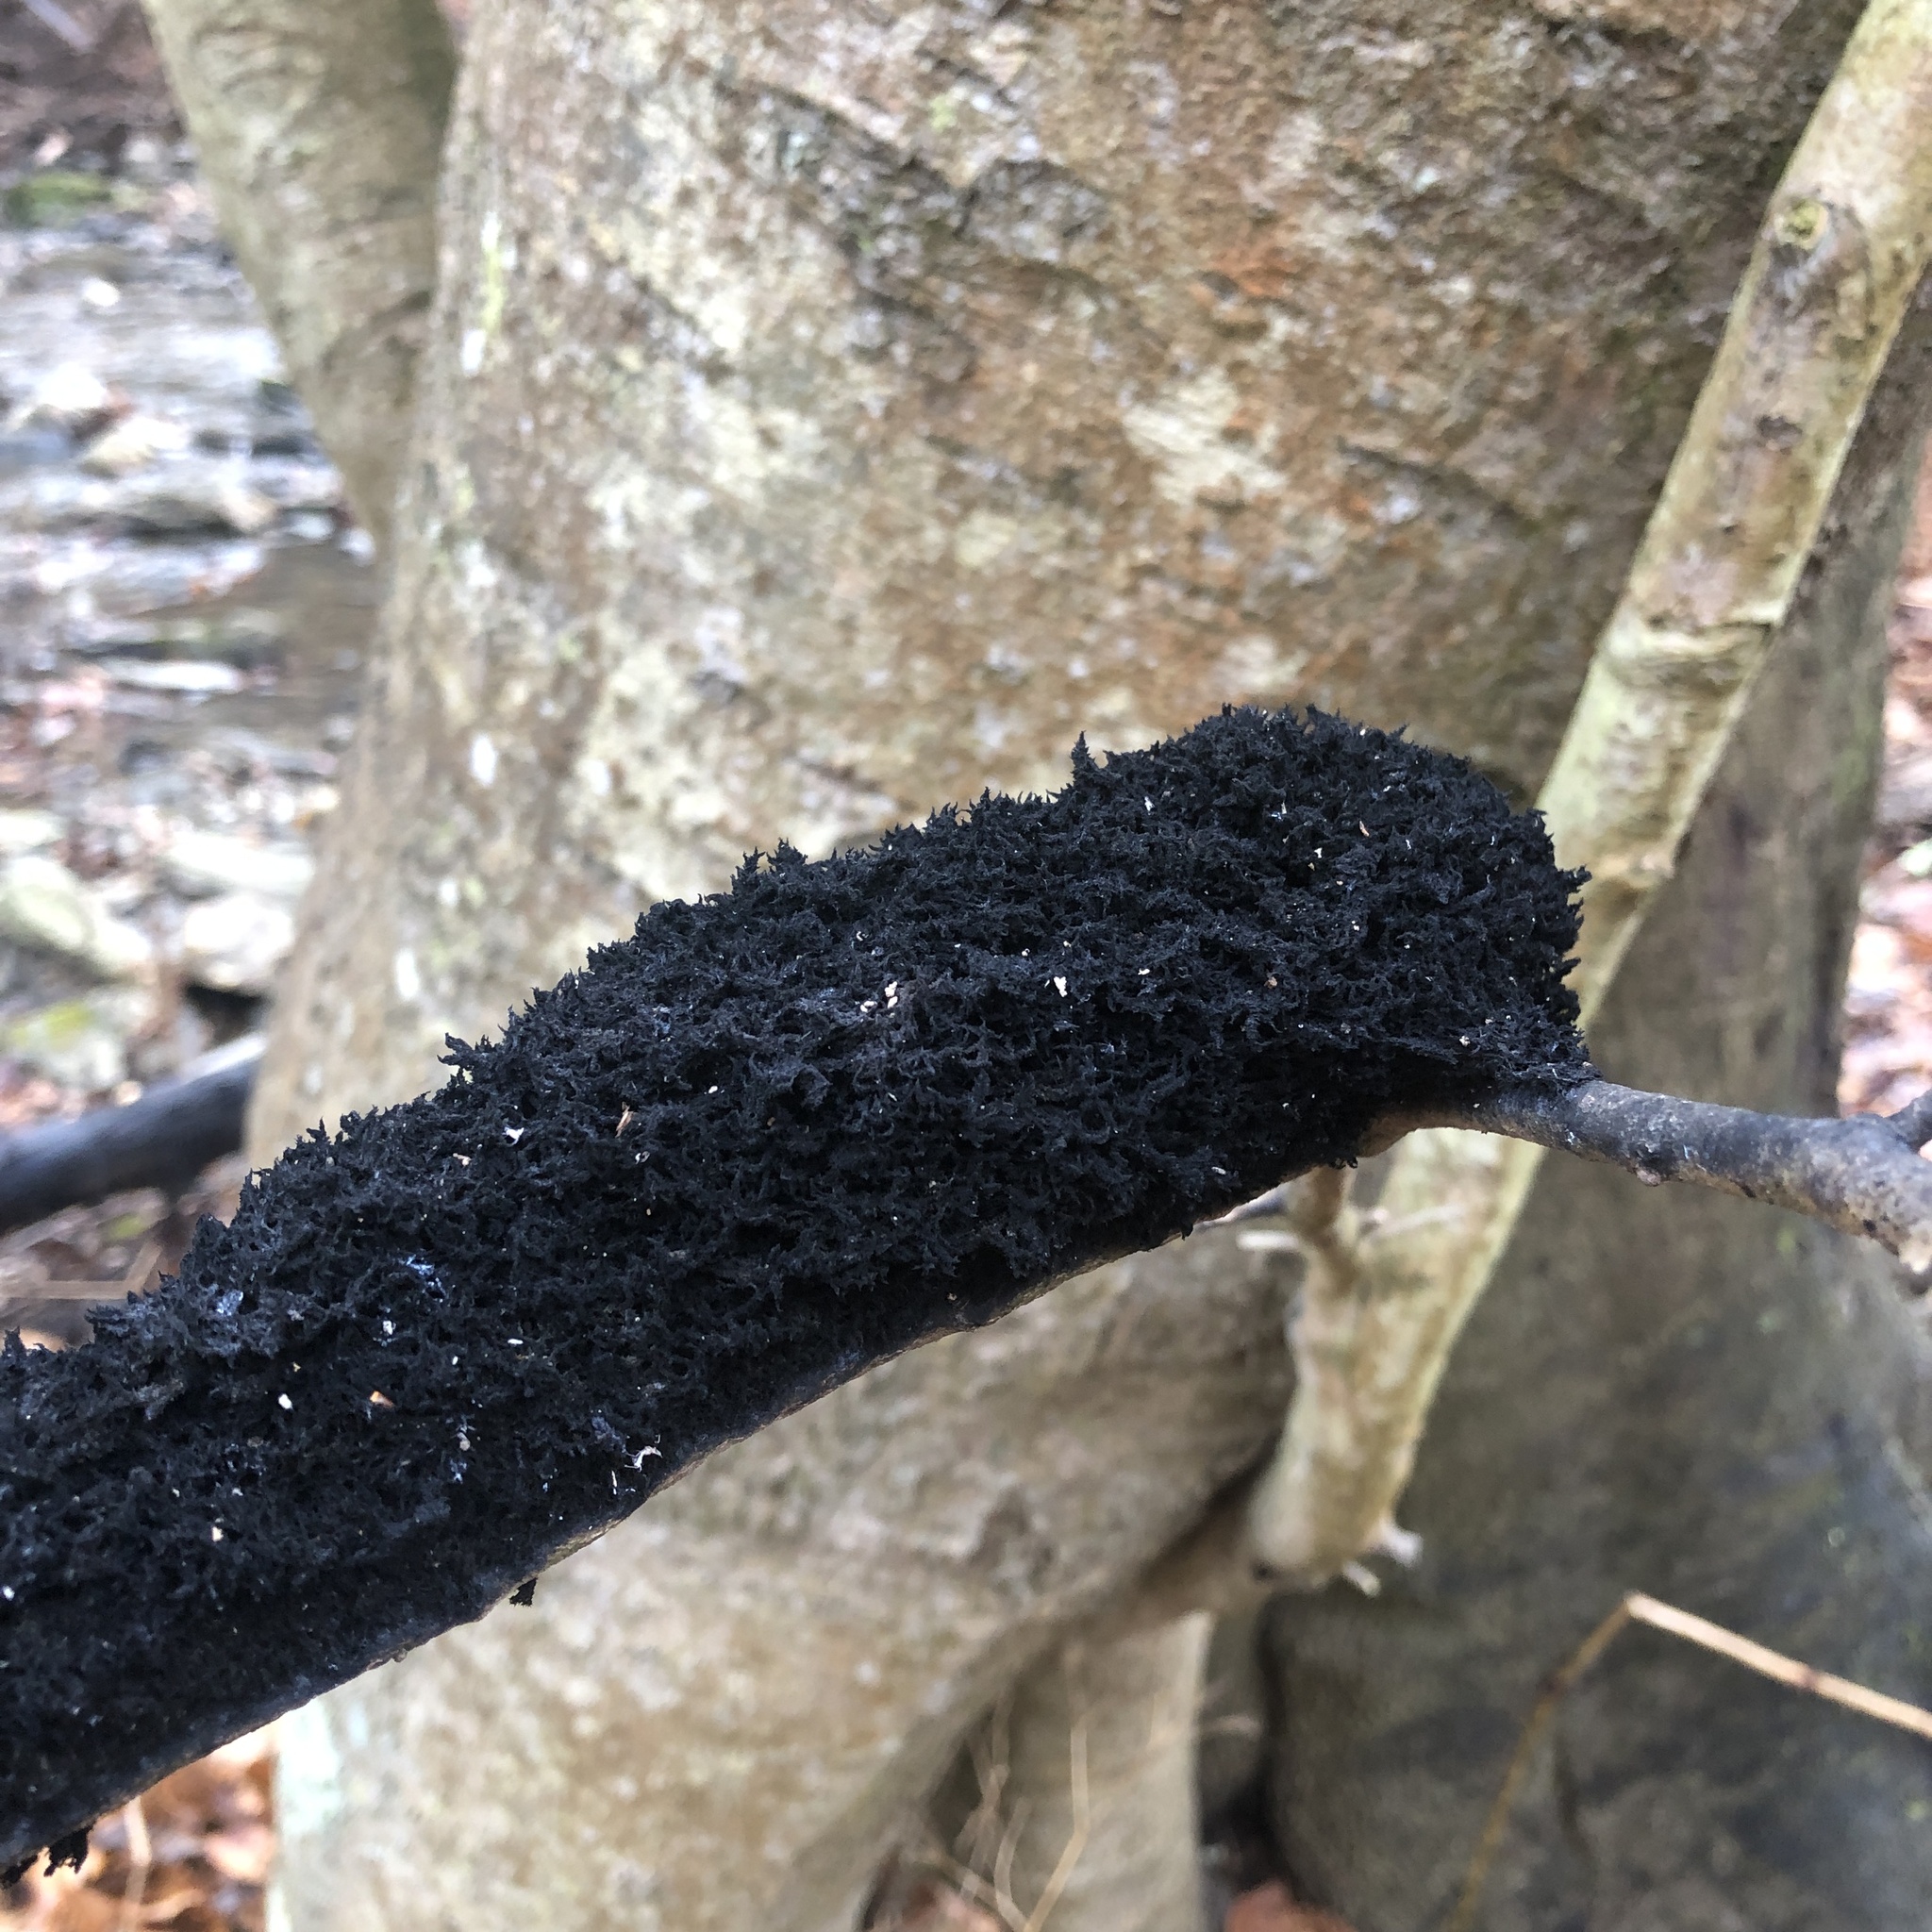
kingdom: Fungi
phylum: Ascomycota
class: Dothideomycetes
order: Capnodiales
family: Capnodiaceae
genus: Scorias
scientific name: Scorias spongiosa
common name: Black sooty mold
